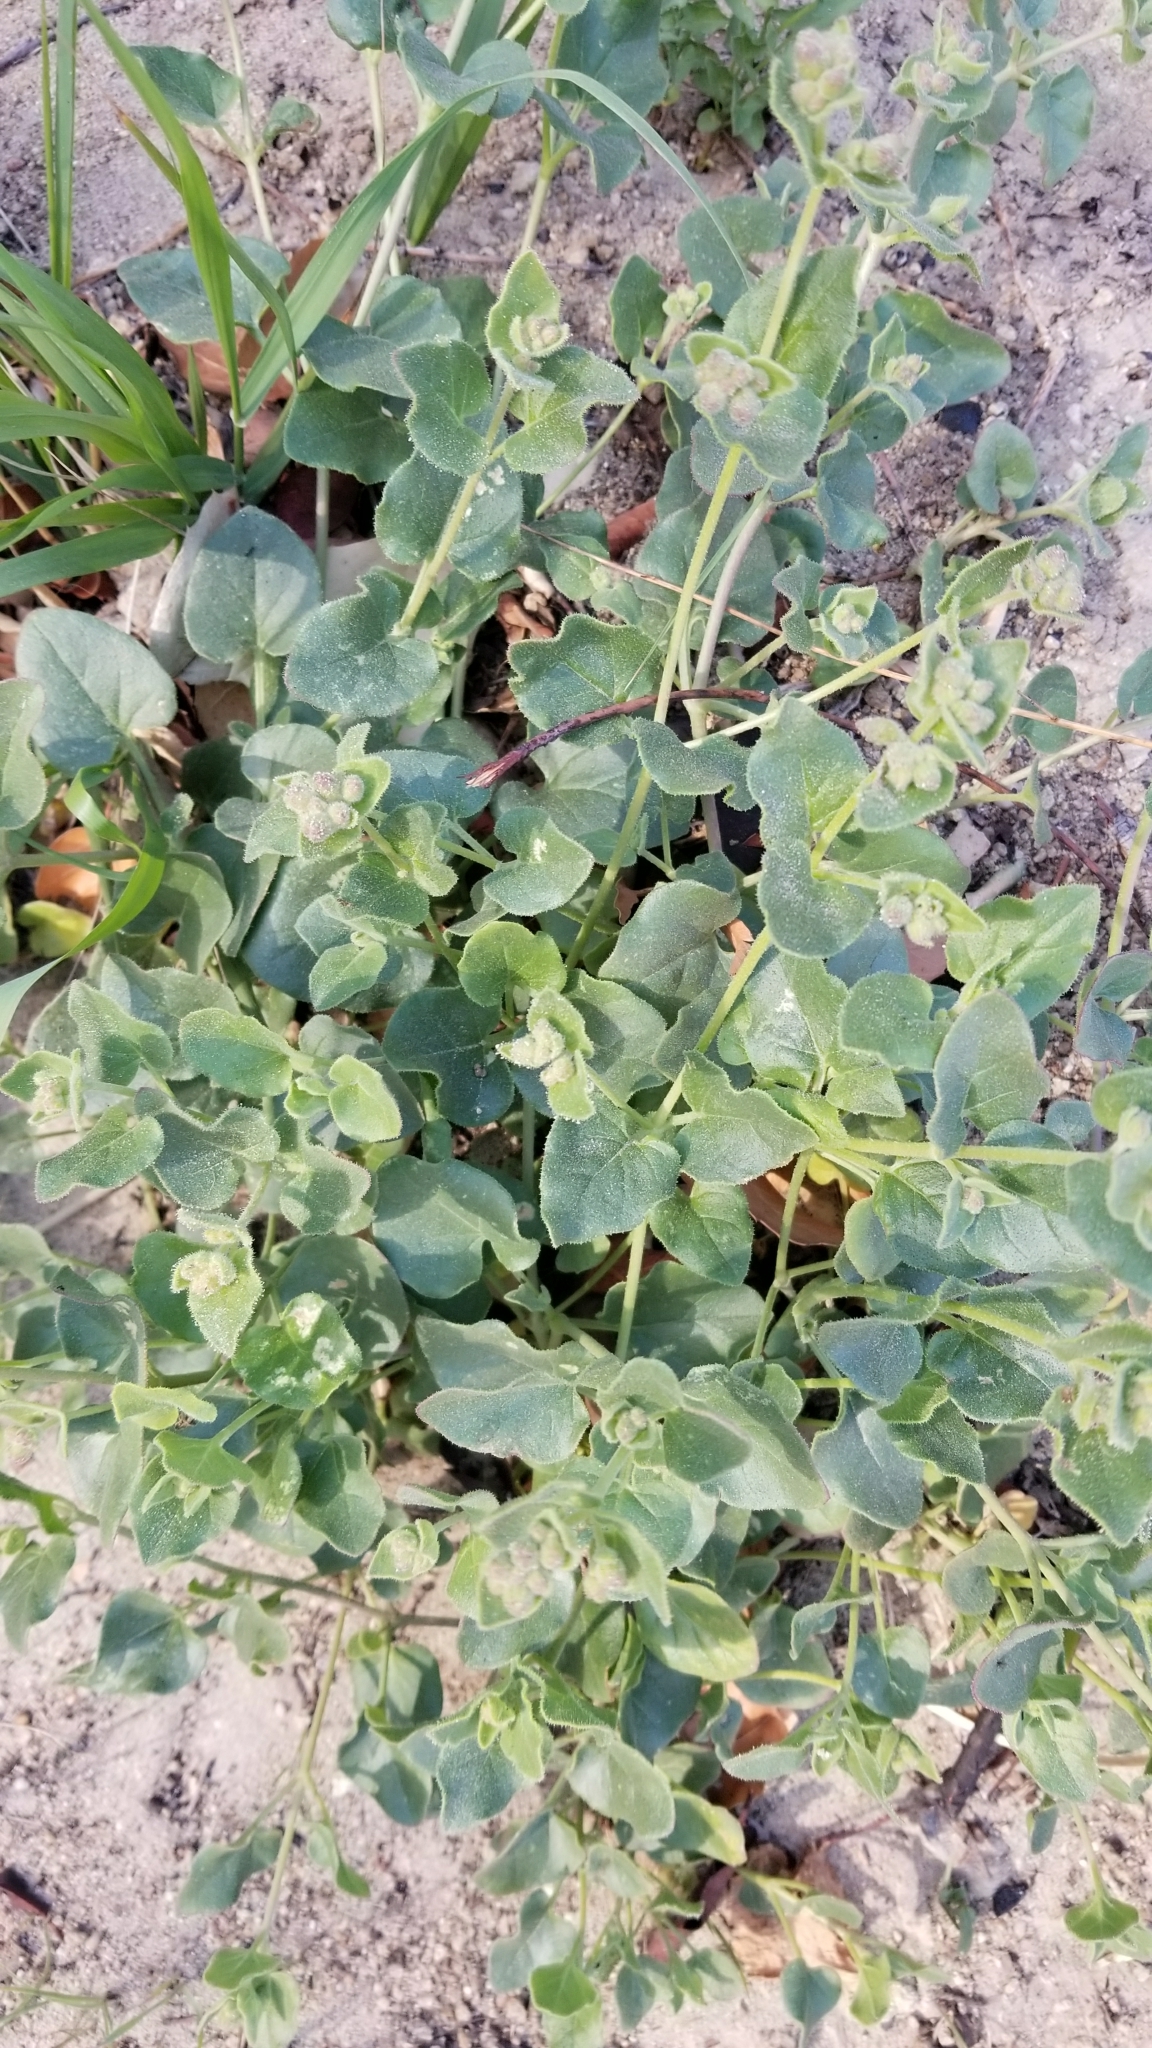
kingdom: Plantae
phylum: Tracheophyta
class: Magnoliopsida
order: Caryophyllales
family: Nyctaginaceae
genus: Mirabilis
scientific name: Mirabilis laevis
